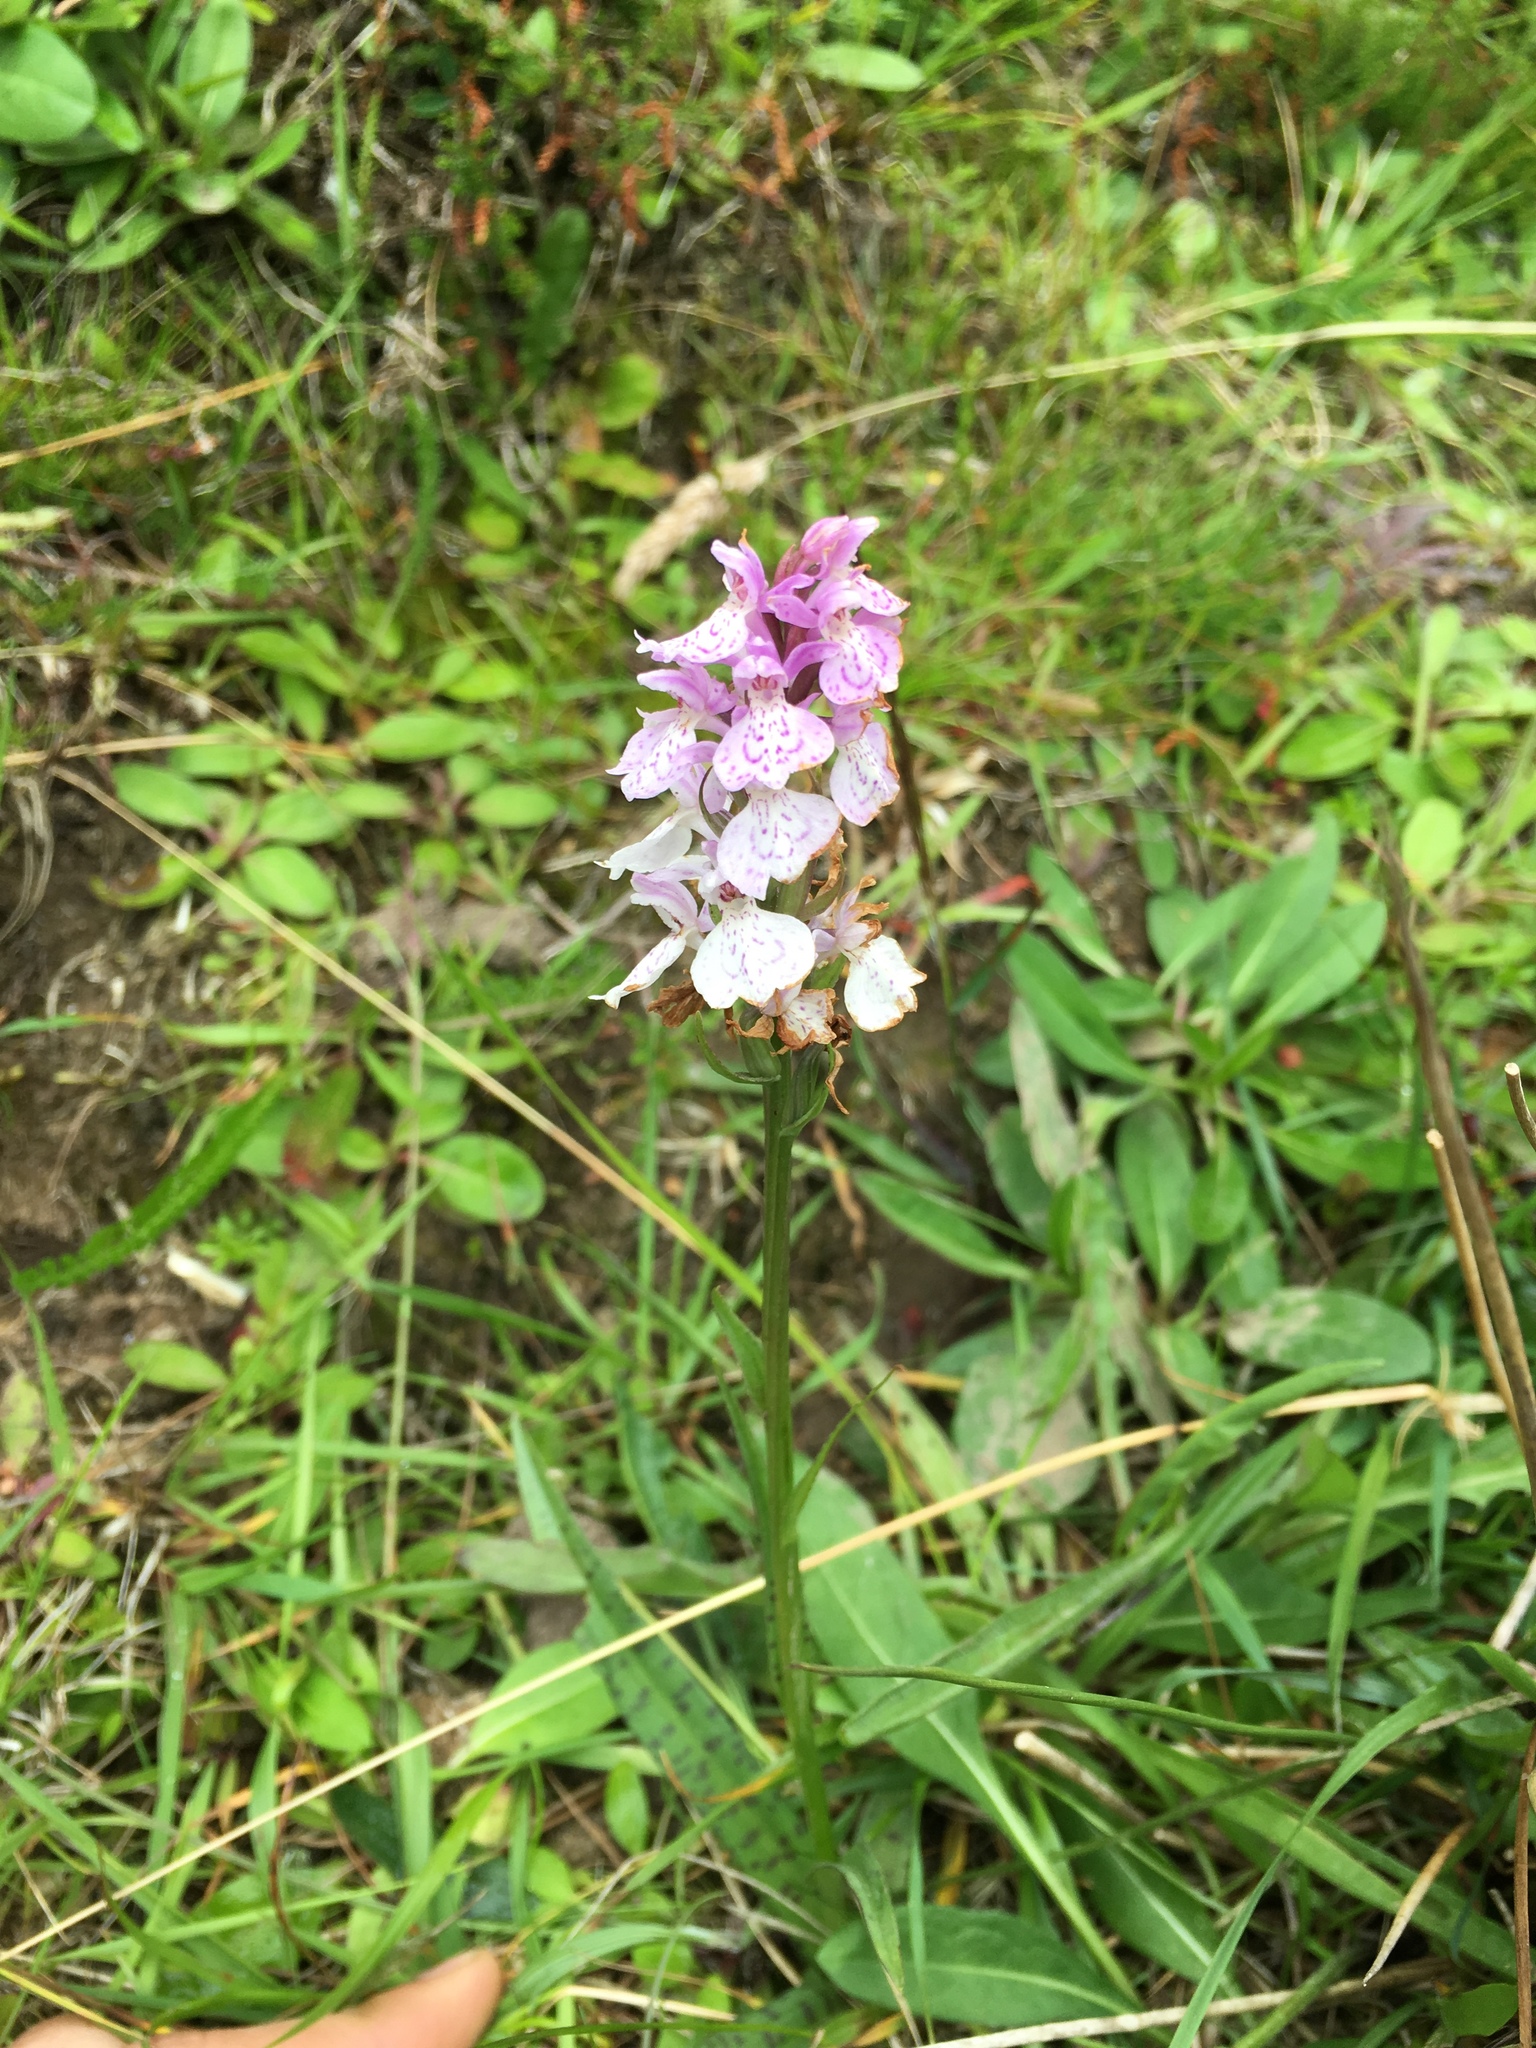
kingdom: Plantae
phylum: Tracheophyta
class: Liliopsida
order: Asparagales
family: Orchidaceae
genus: Dactylorhiza
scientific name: Dactylorhiza maculata
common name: Heath spotted-orchid
